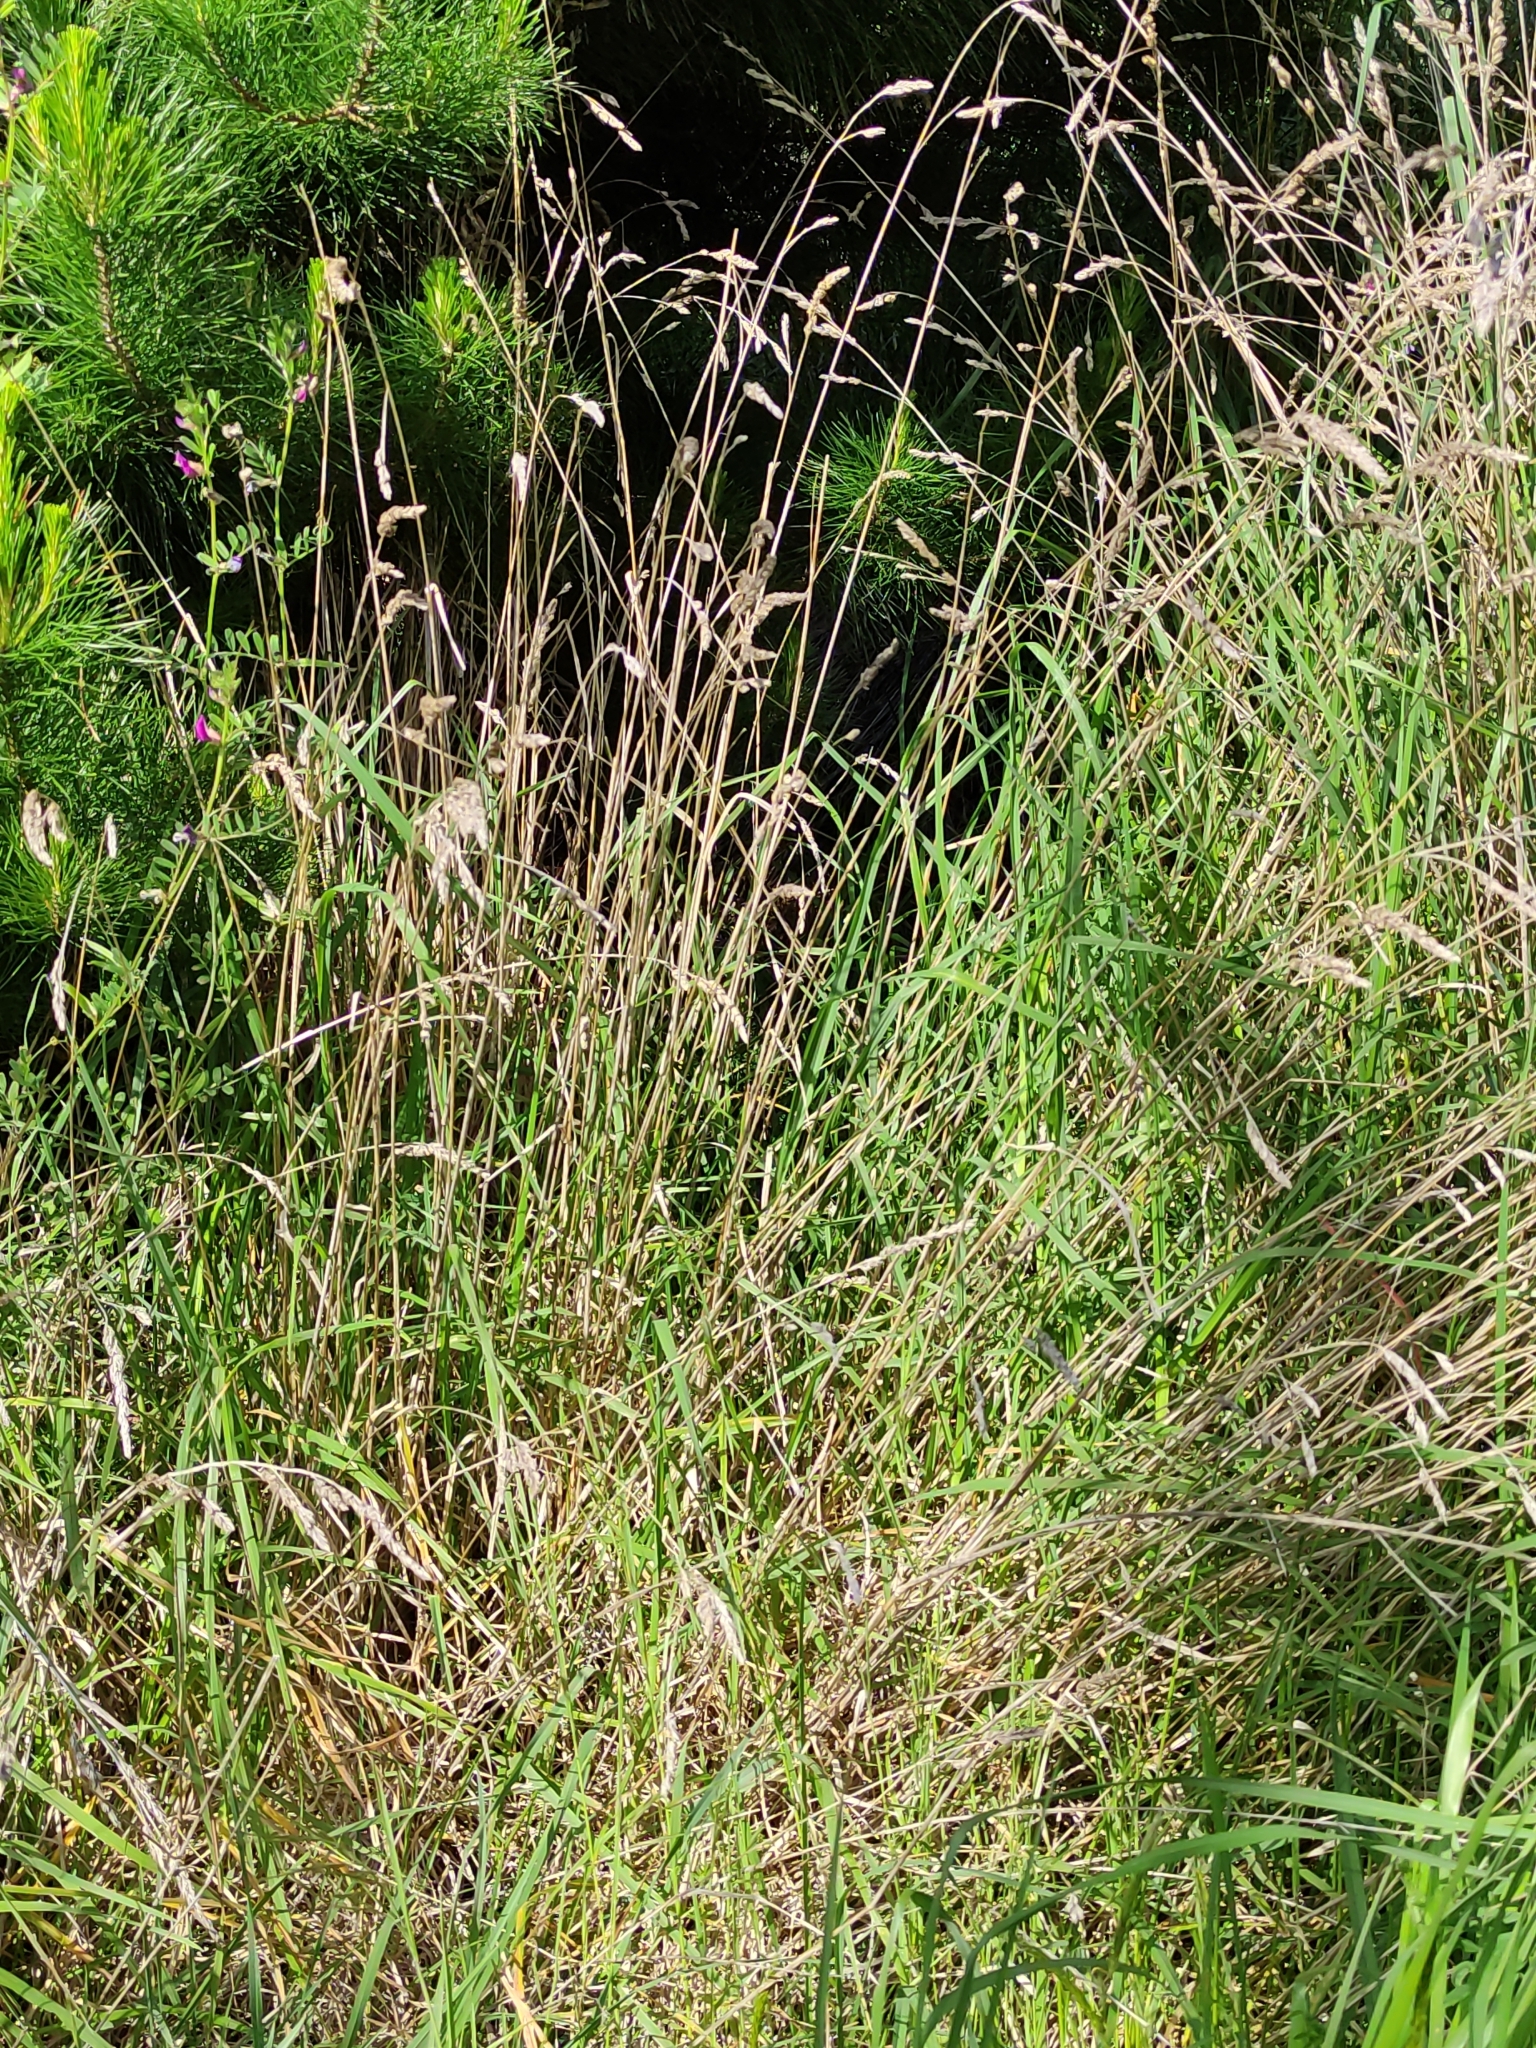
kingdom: Plantae
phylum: Tracheophyta
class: Liliopsida
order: Poales
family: Poaceae
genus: Dactylis
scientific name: Dactylis glomerata
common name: Orchardgrass
